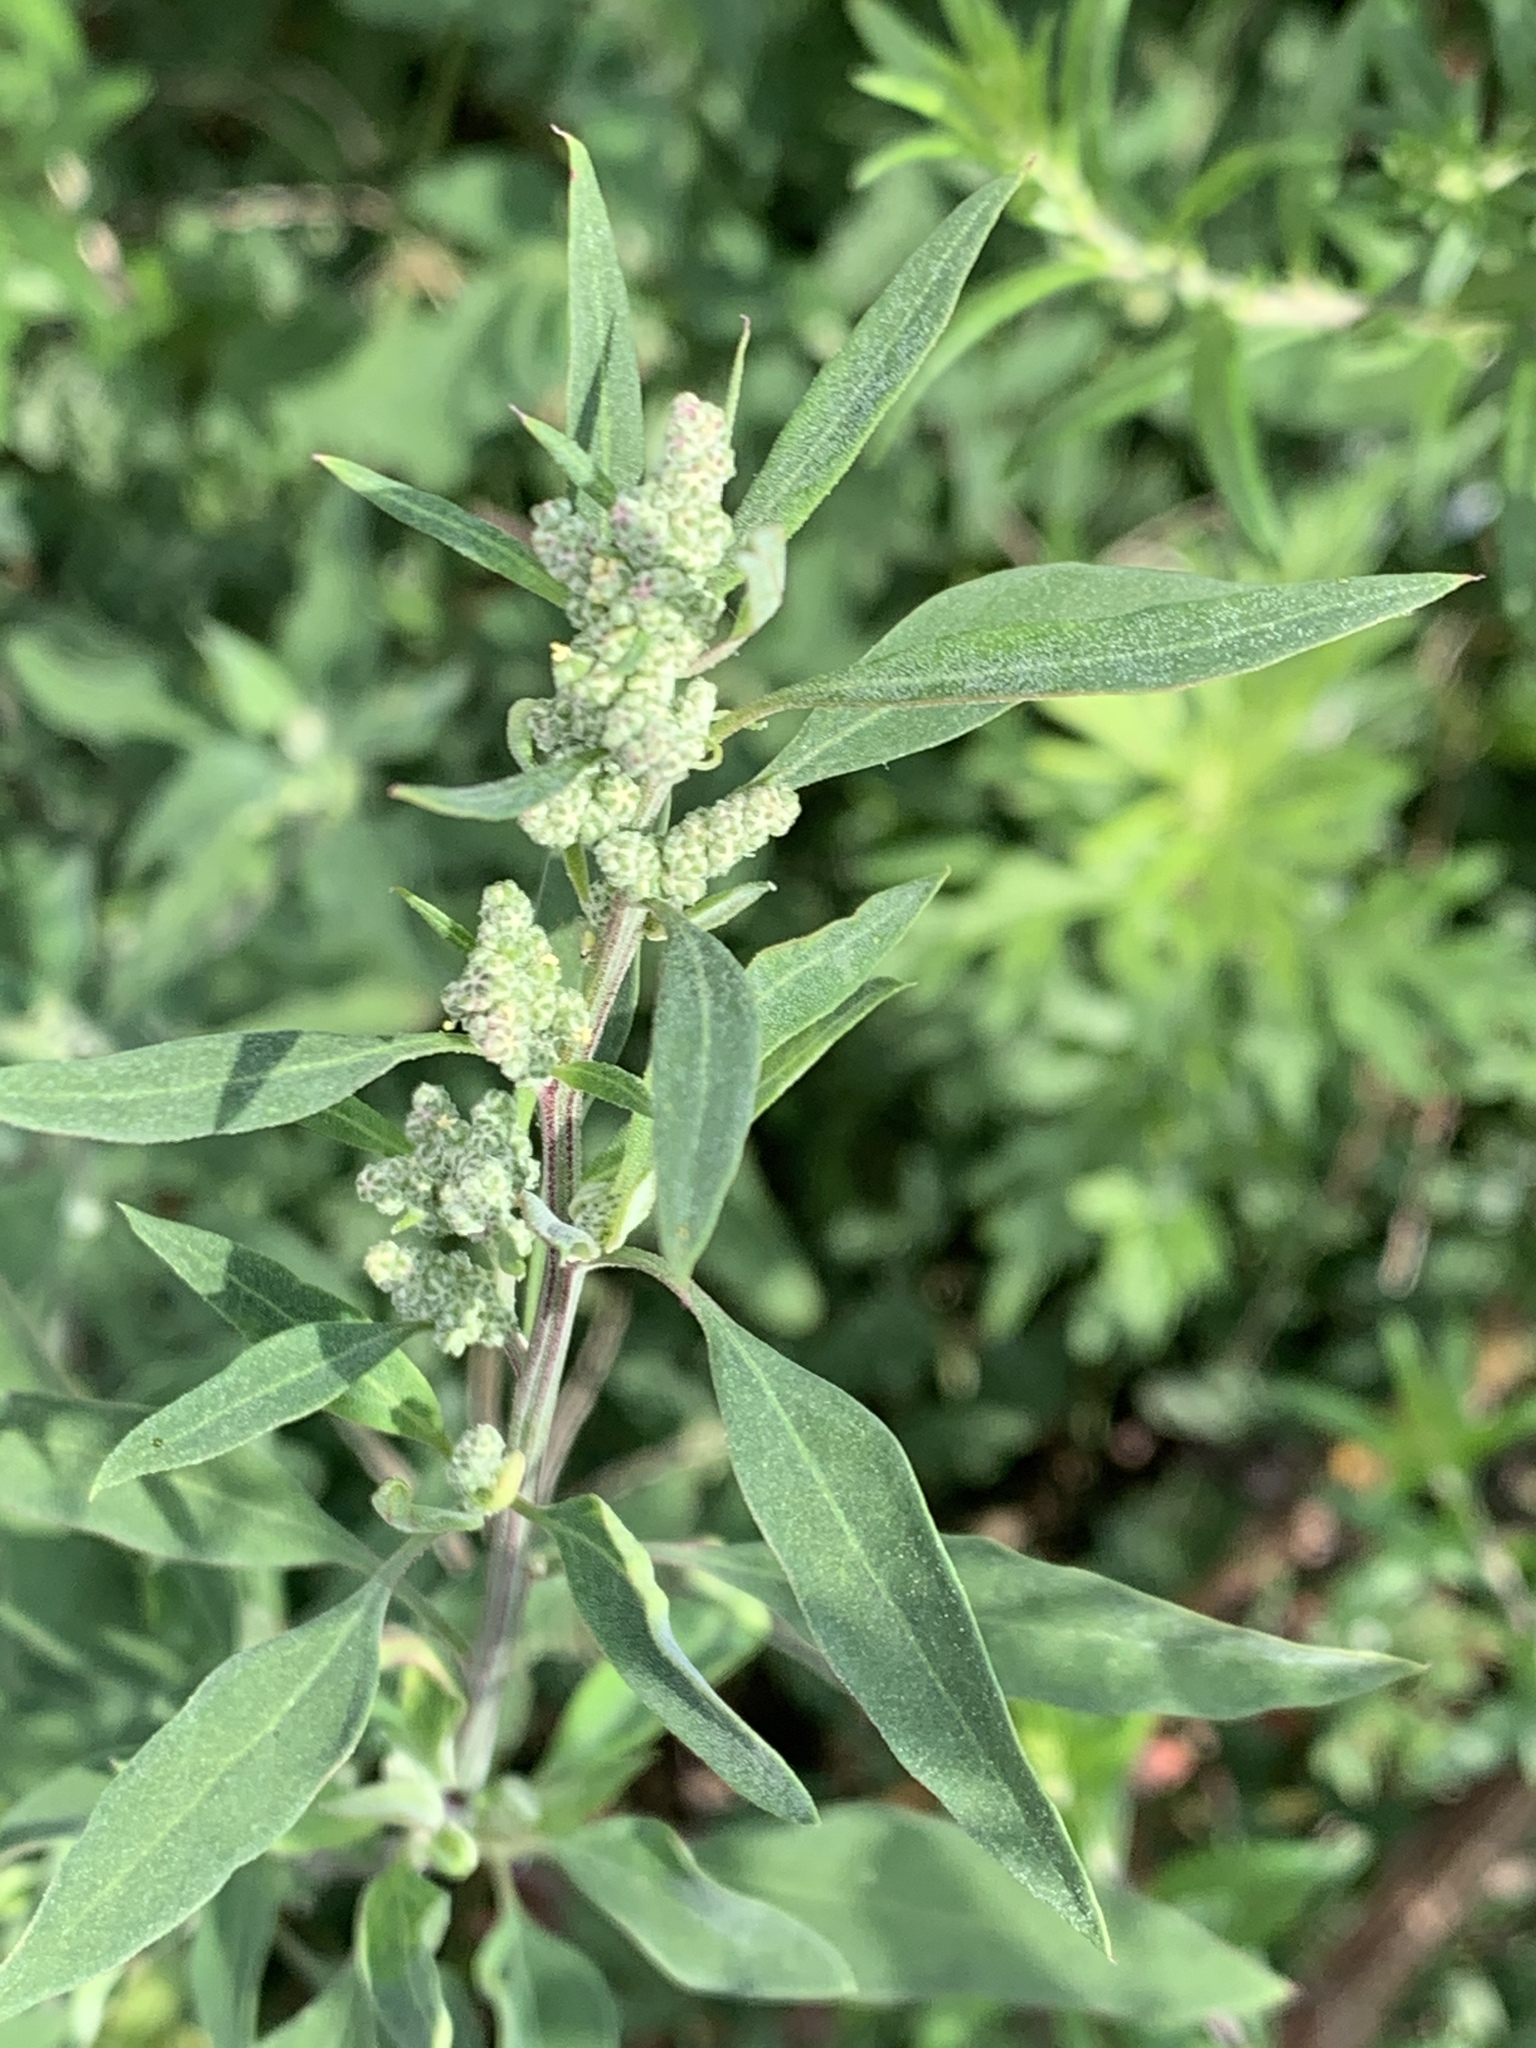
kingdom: Plantae
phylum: Tracheophyta
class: Magnoliopsida
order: Caryophyllales
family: Amaranthaceae
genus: Chenopodium
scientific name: Chenopodium album
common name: Fat-hen
